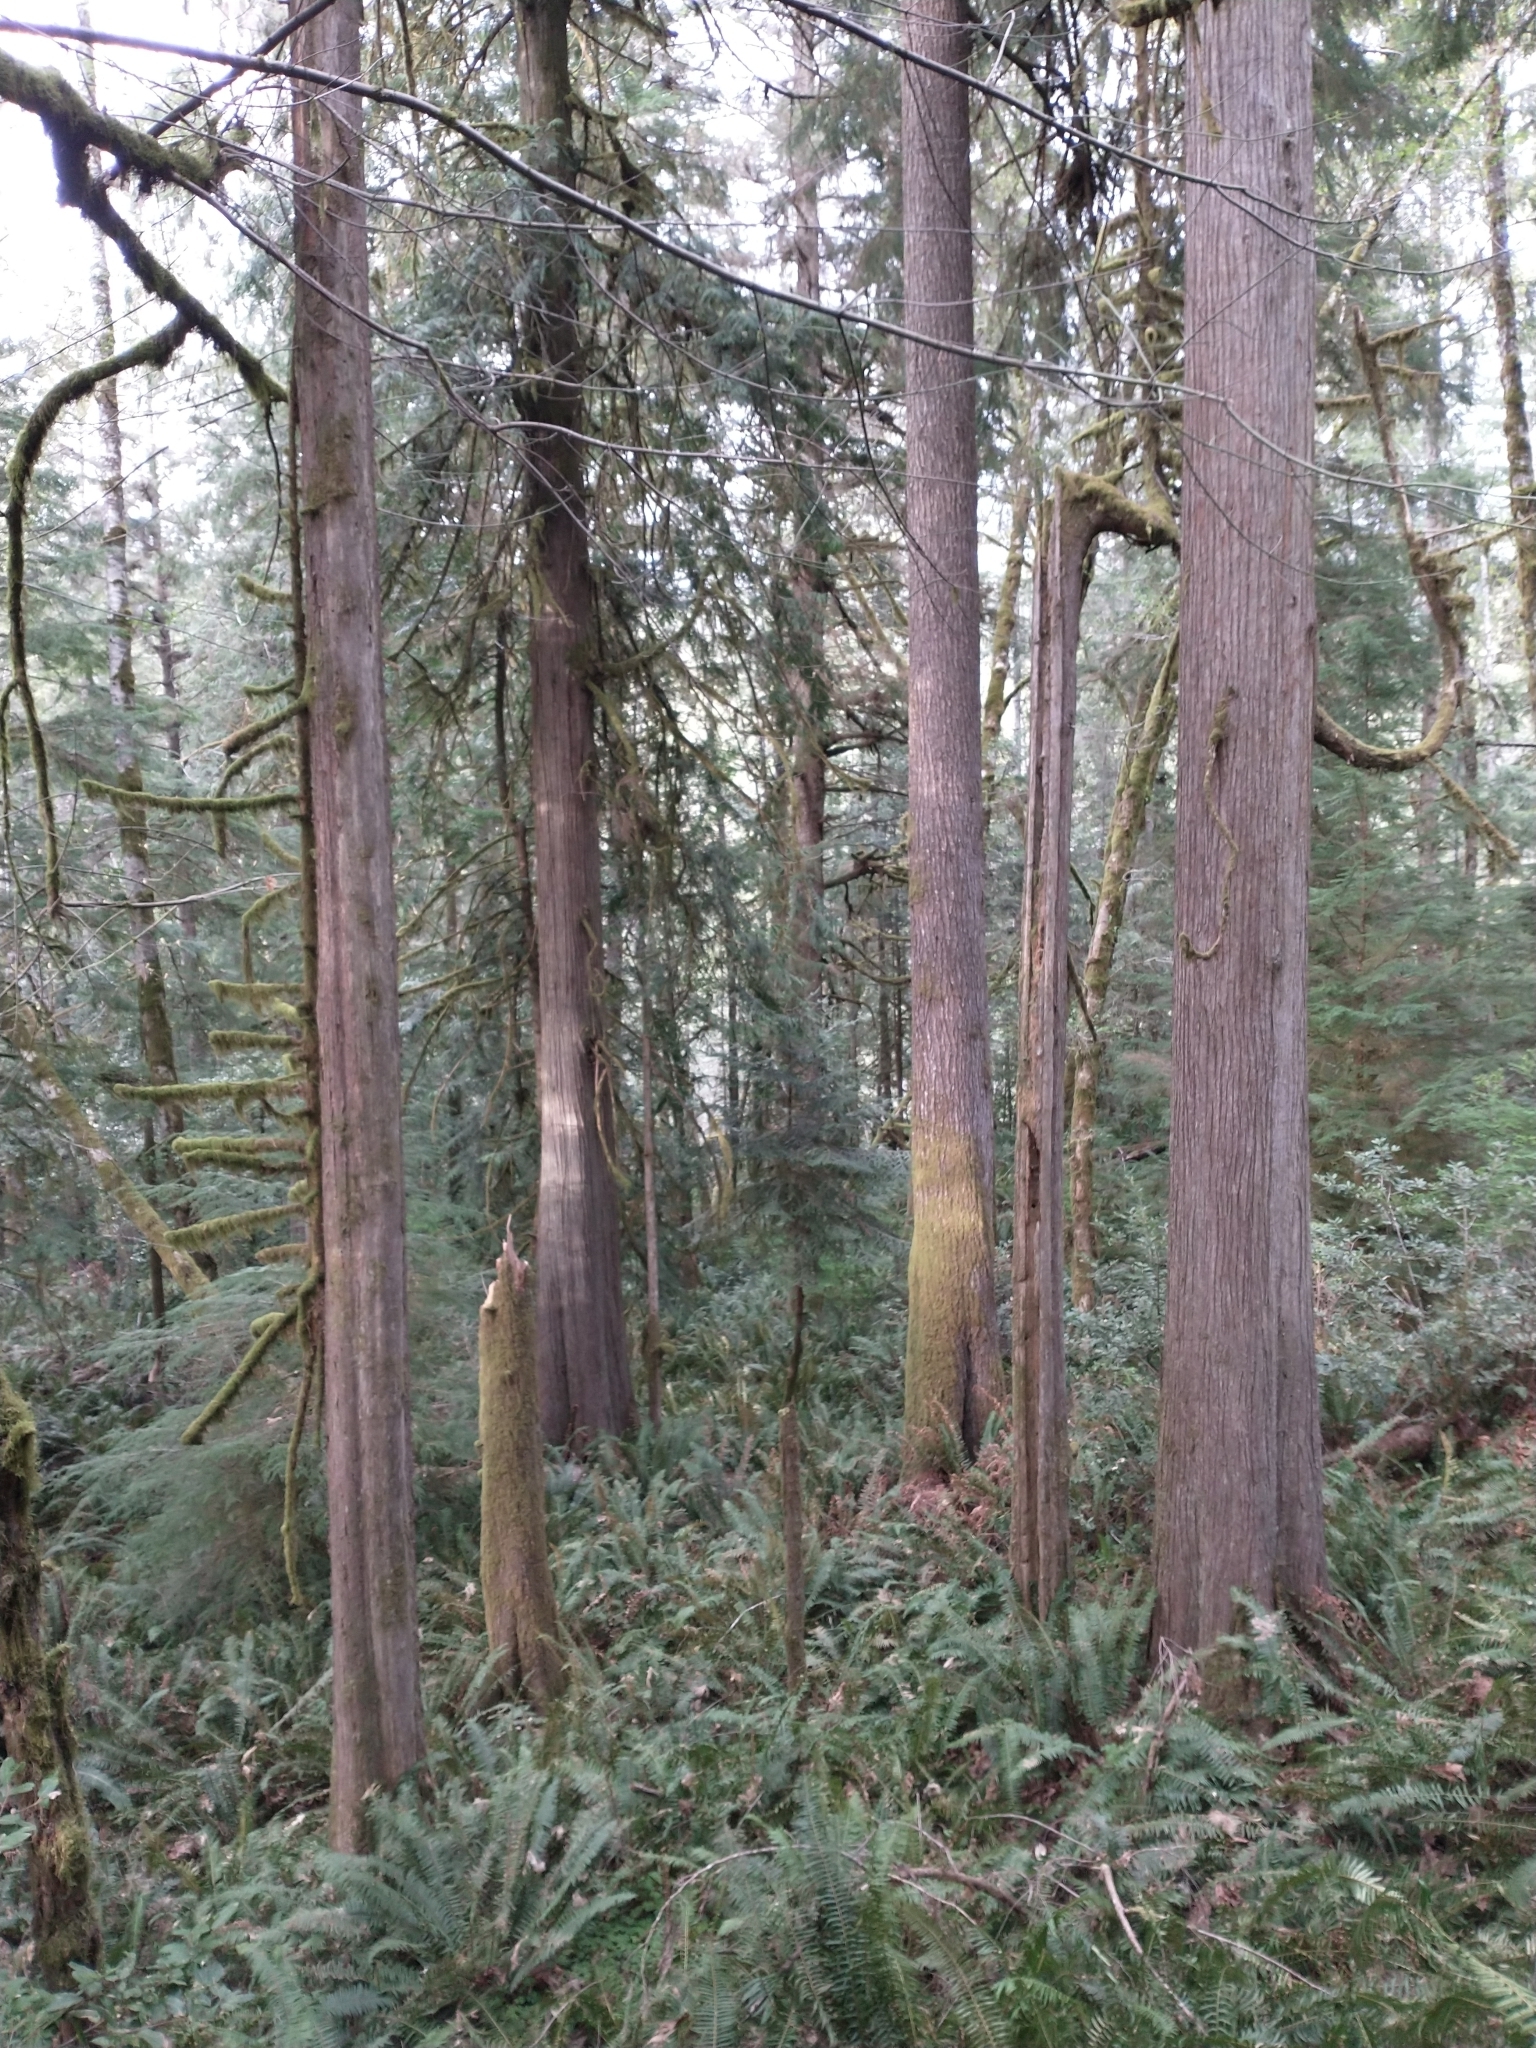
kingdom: Plantae
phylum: Tracheophyta
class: Polypodiopsida
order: Polypodiales
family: Dryopteridaceae
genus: Polystichum
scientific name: Polystichum munitum
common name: Western sword-fern
